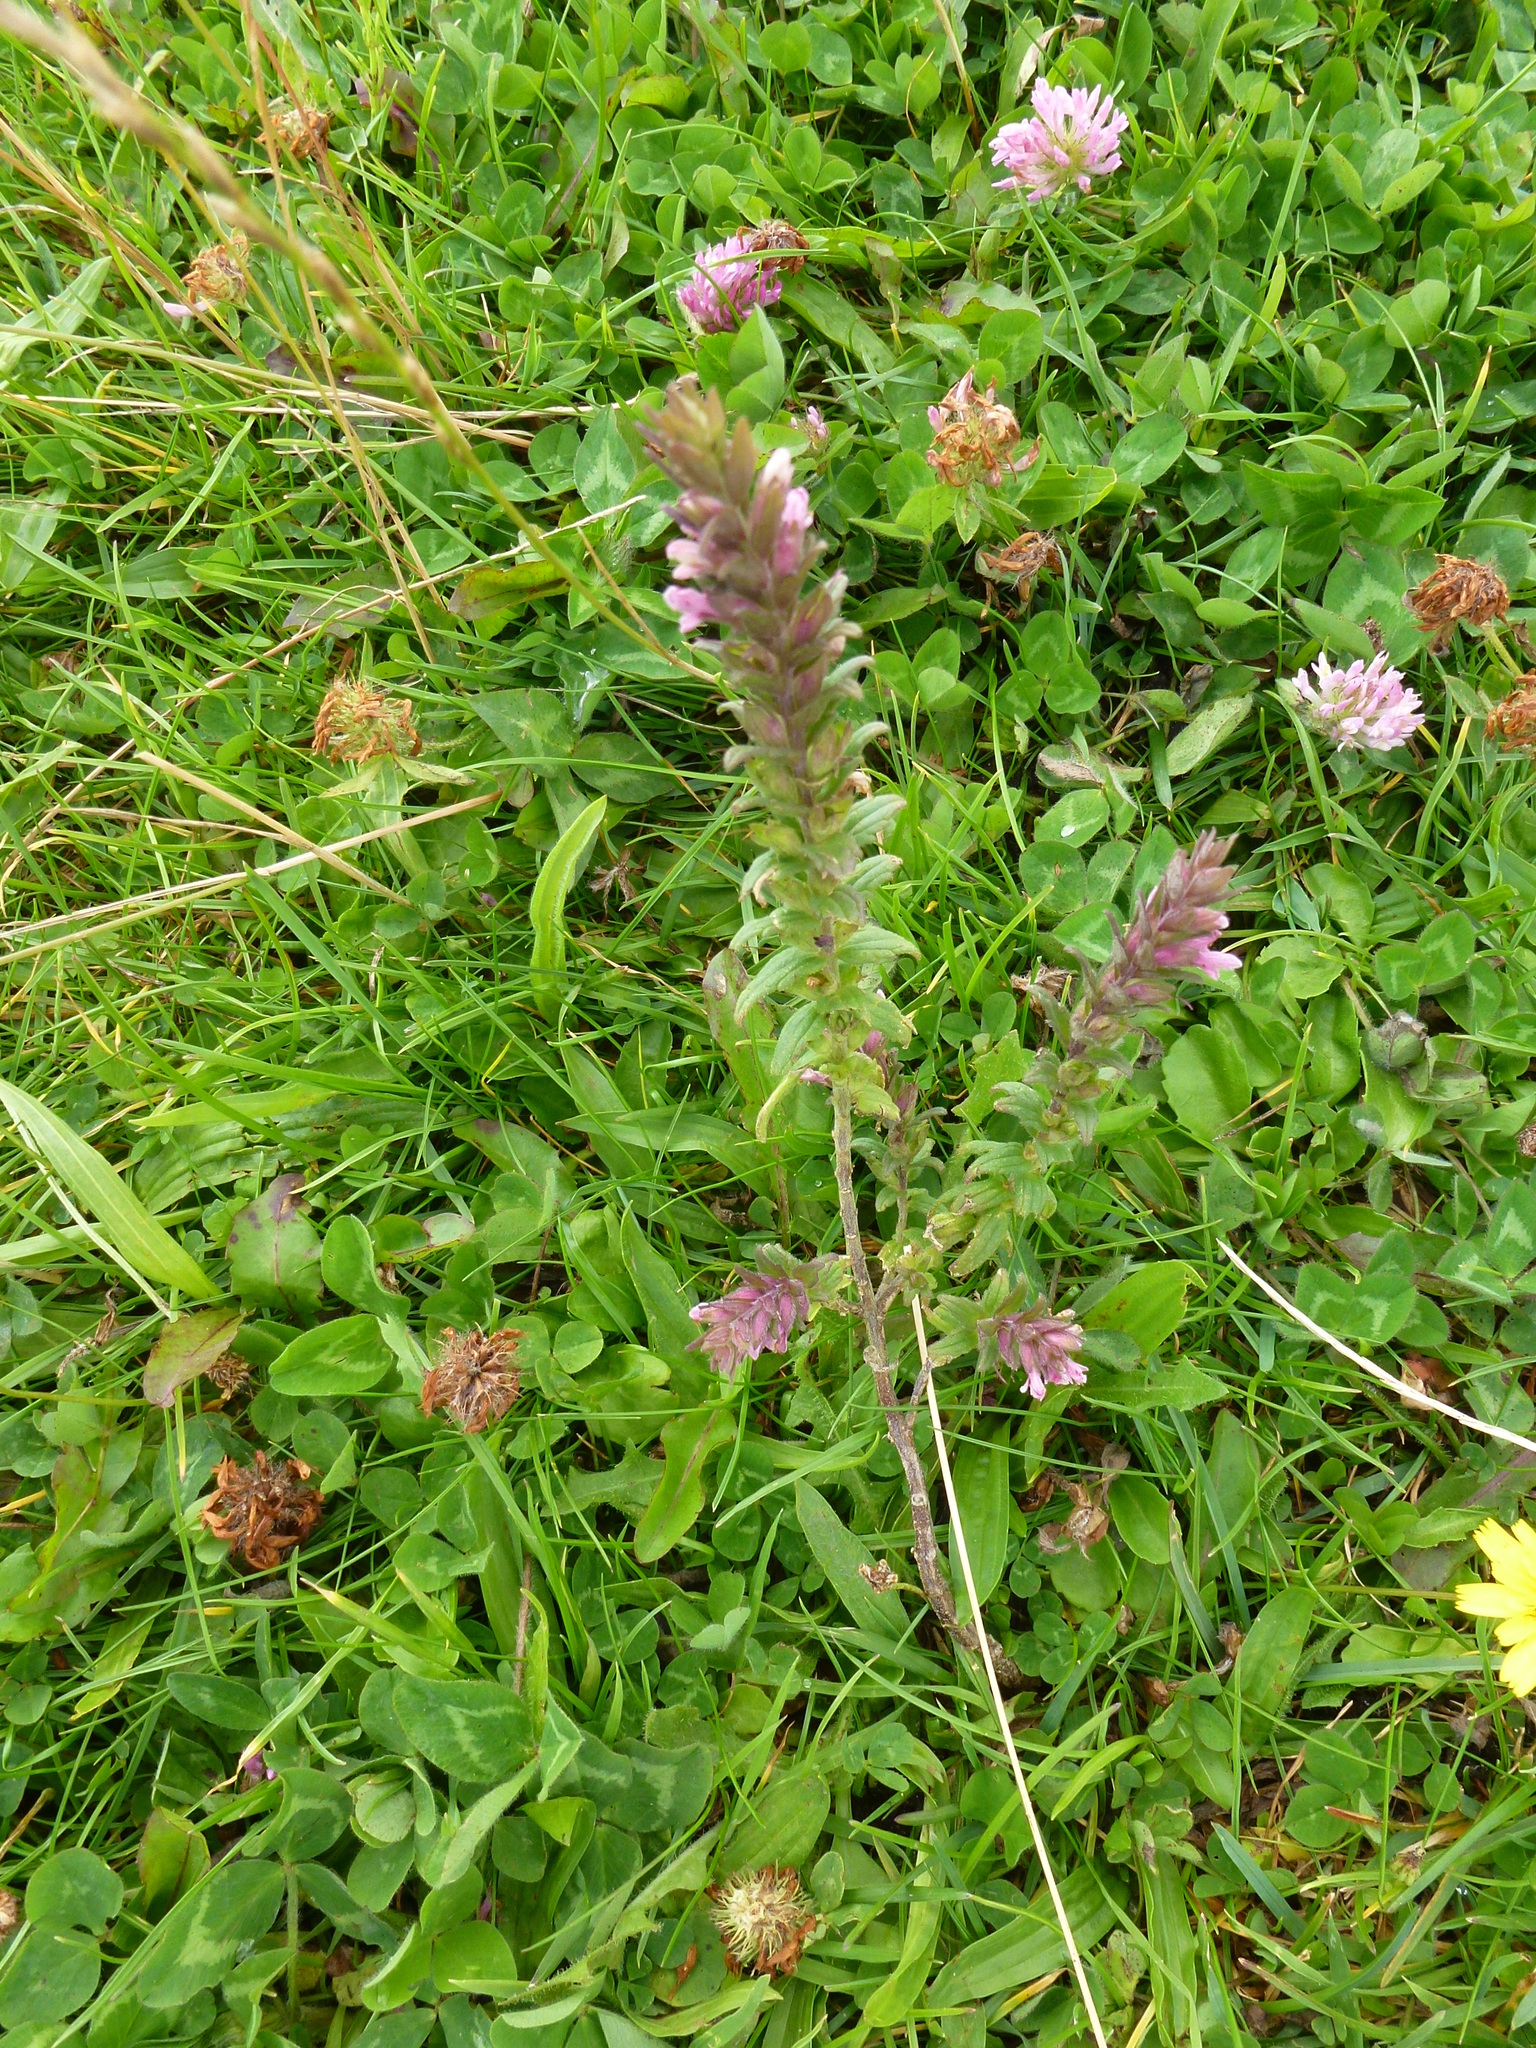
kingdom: Plantae
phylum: Tracheophyta
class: Magnoliopsida
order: Lamiales
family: Orobanchaceae
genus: Odontites
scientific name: Odontites vulgaris
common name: Broomrape
